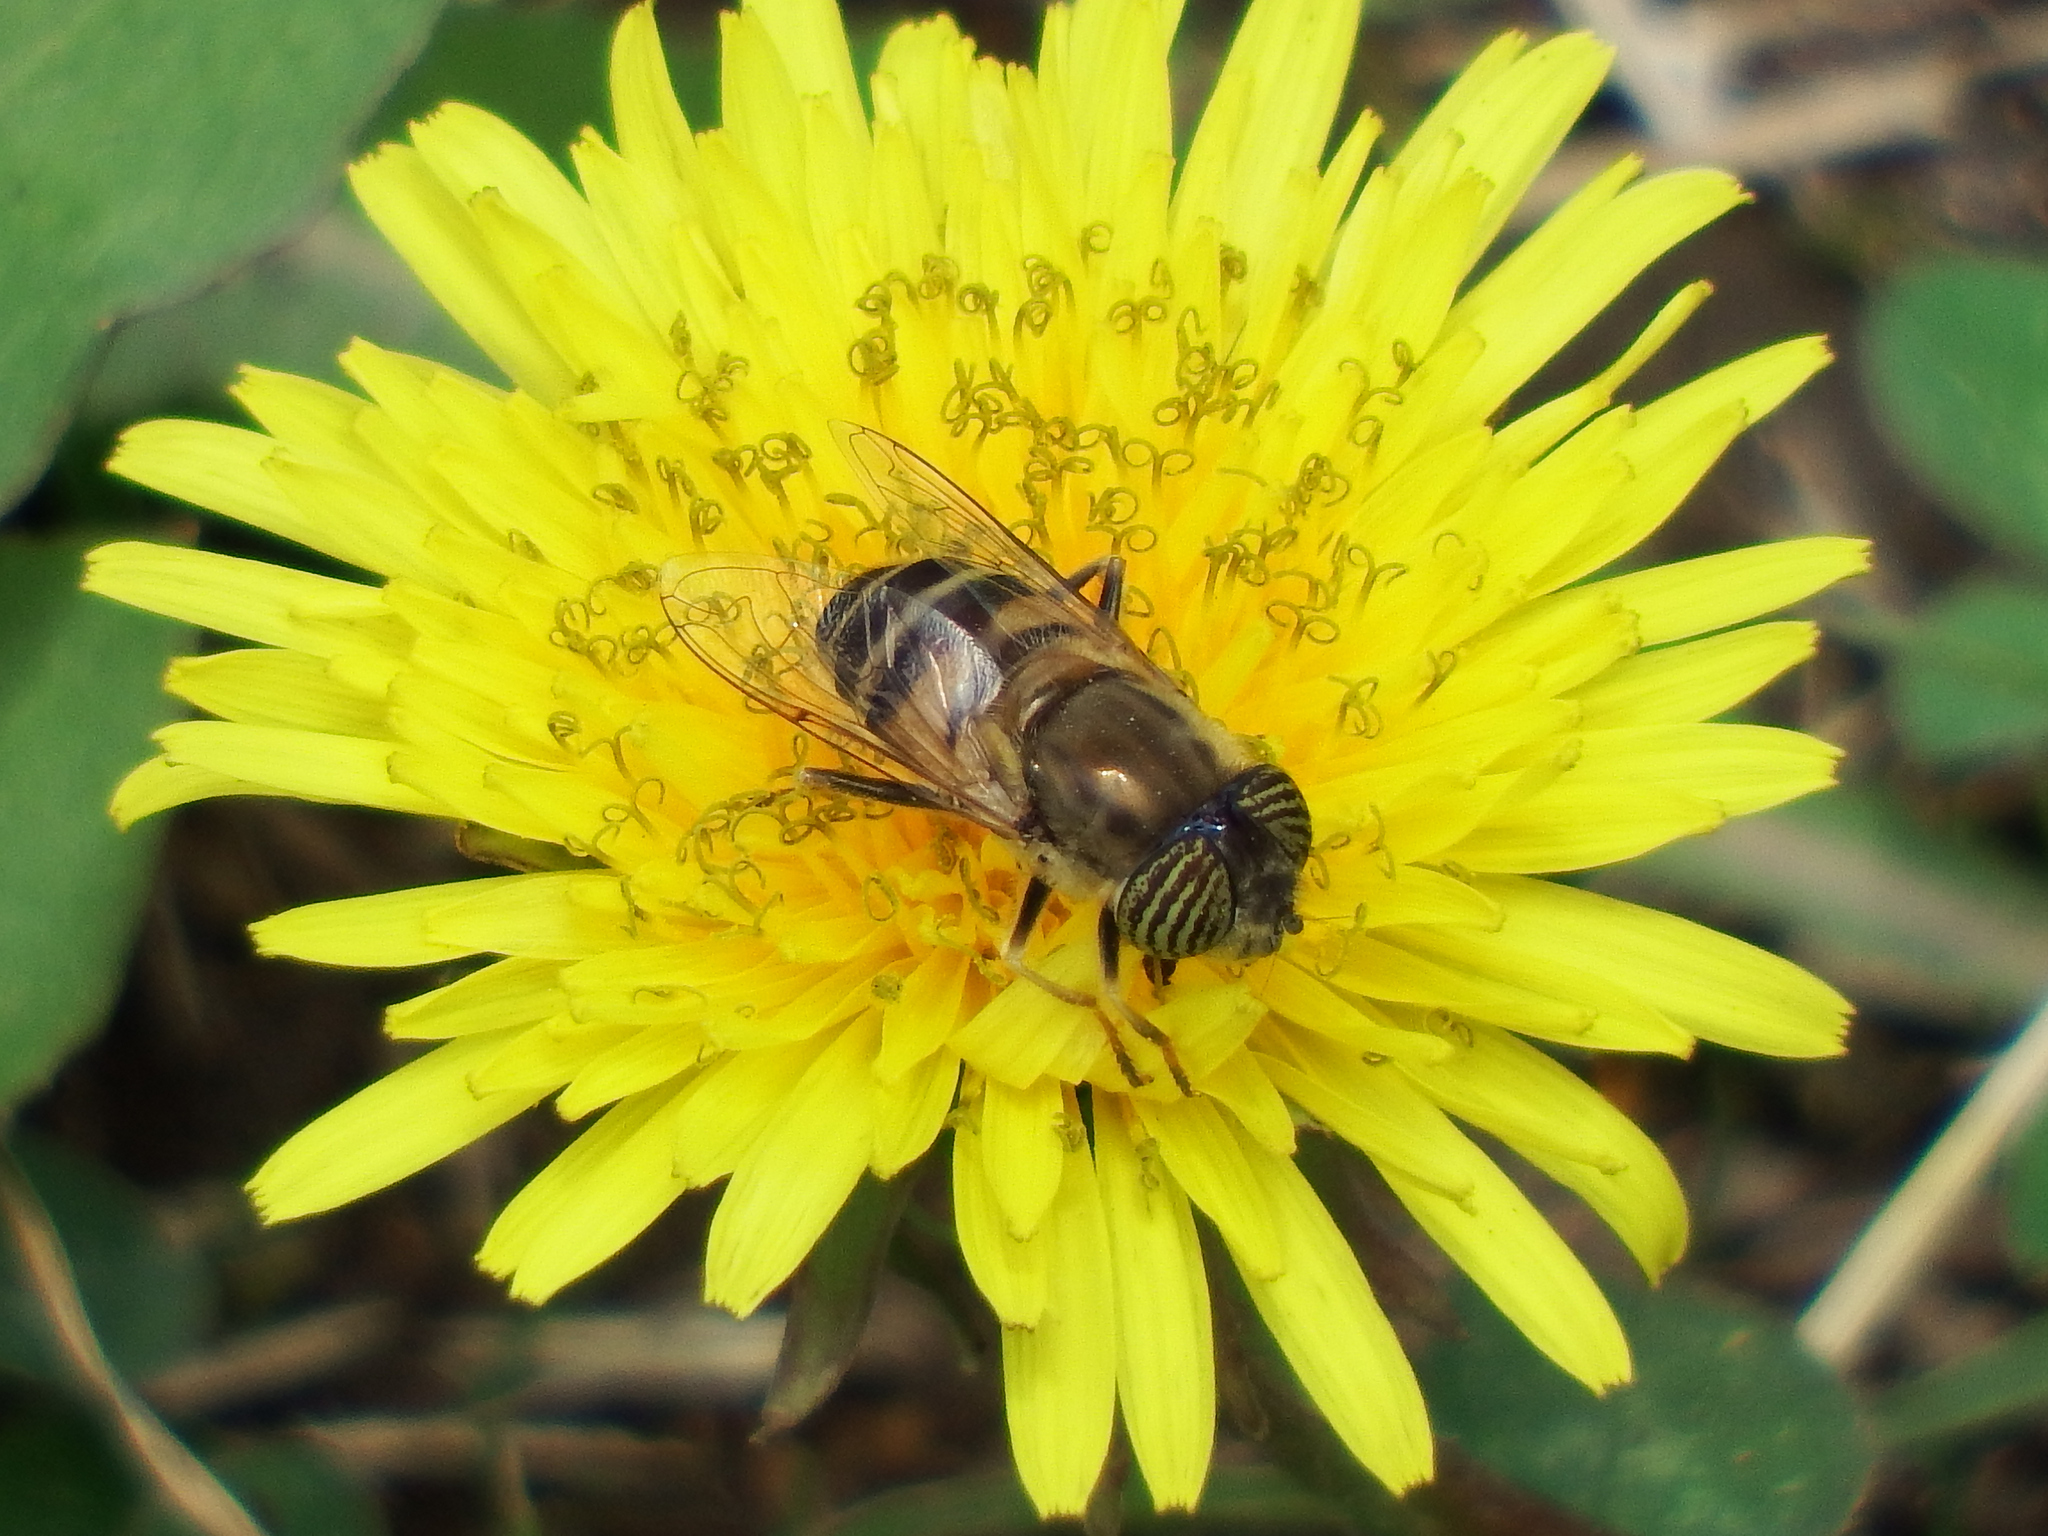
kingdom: Animalia
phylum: Arthropoda
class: Insecta
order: Diptera
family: Syrphidae
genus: Eristalinus
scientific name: Eristalinus taeniops
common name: Syrphid fly
